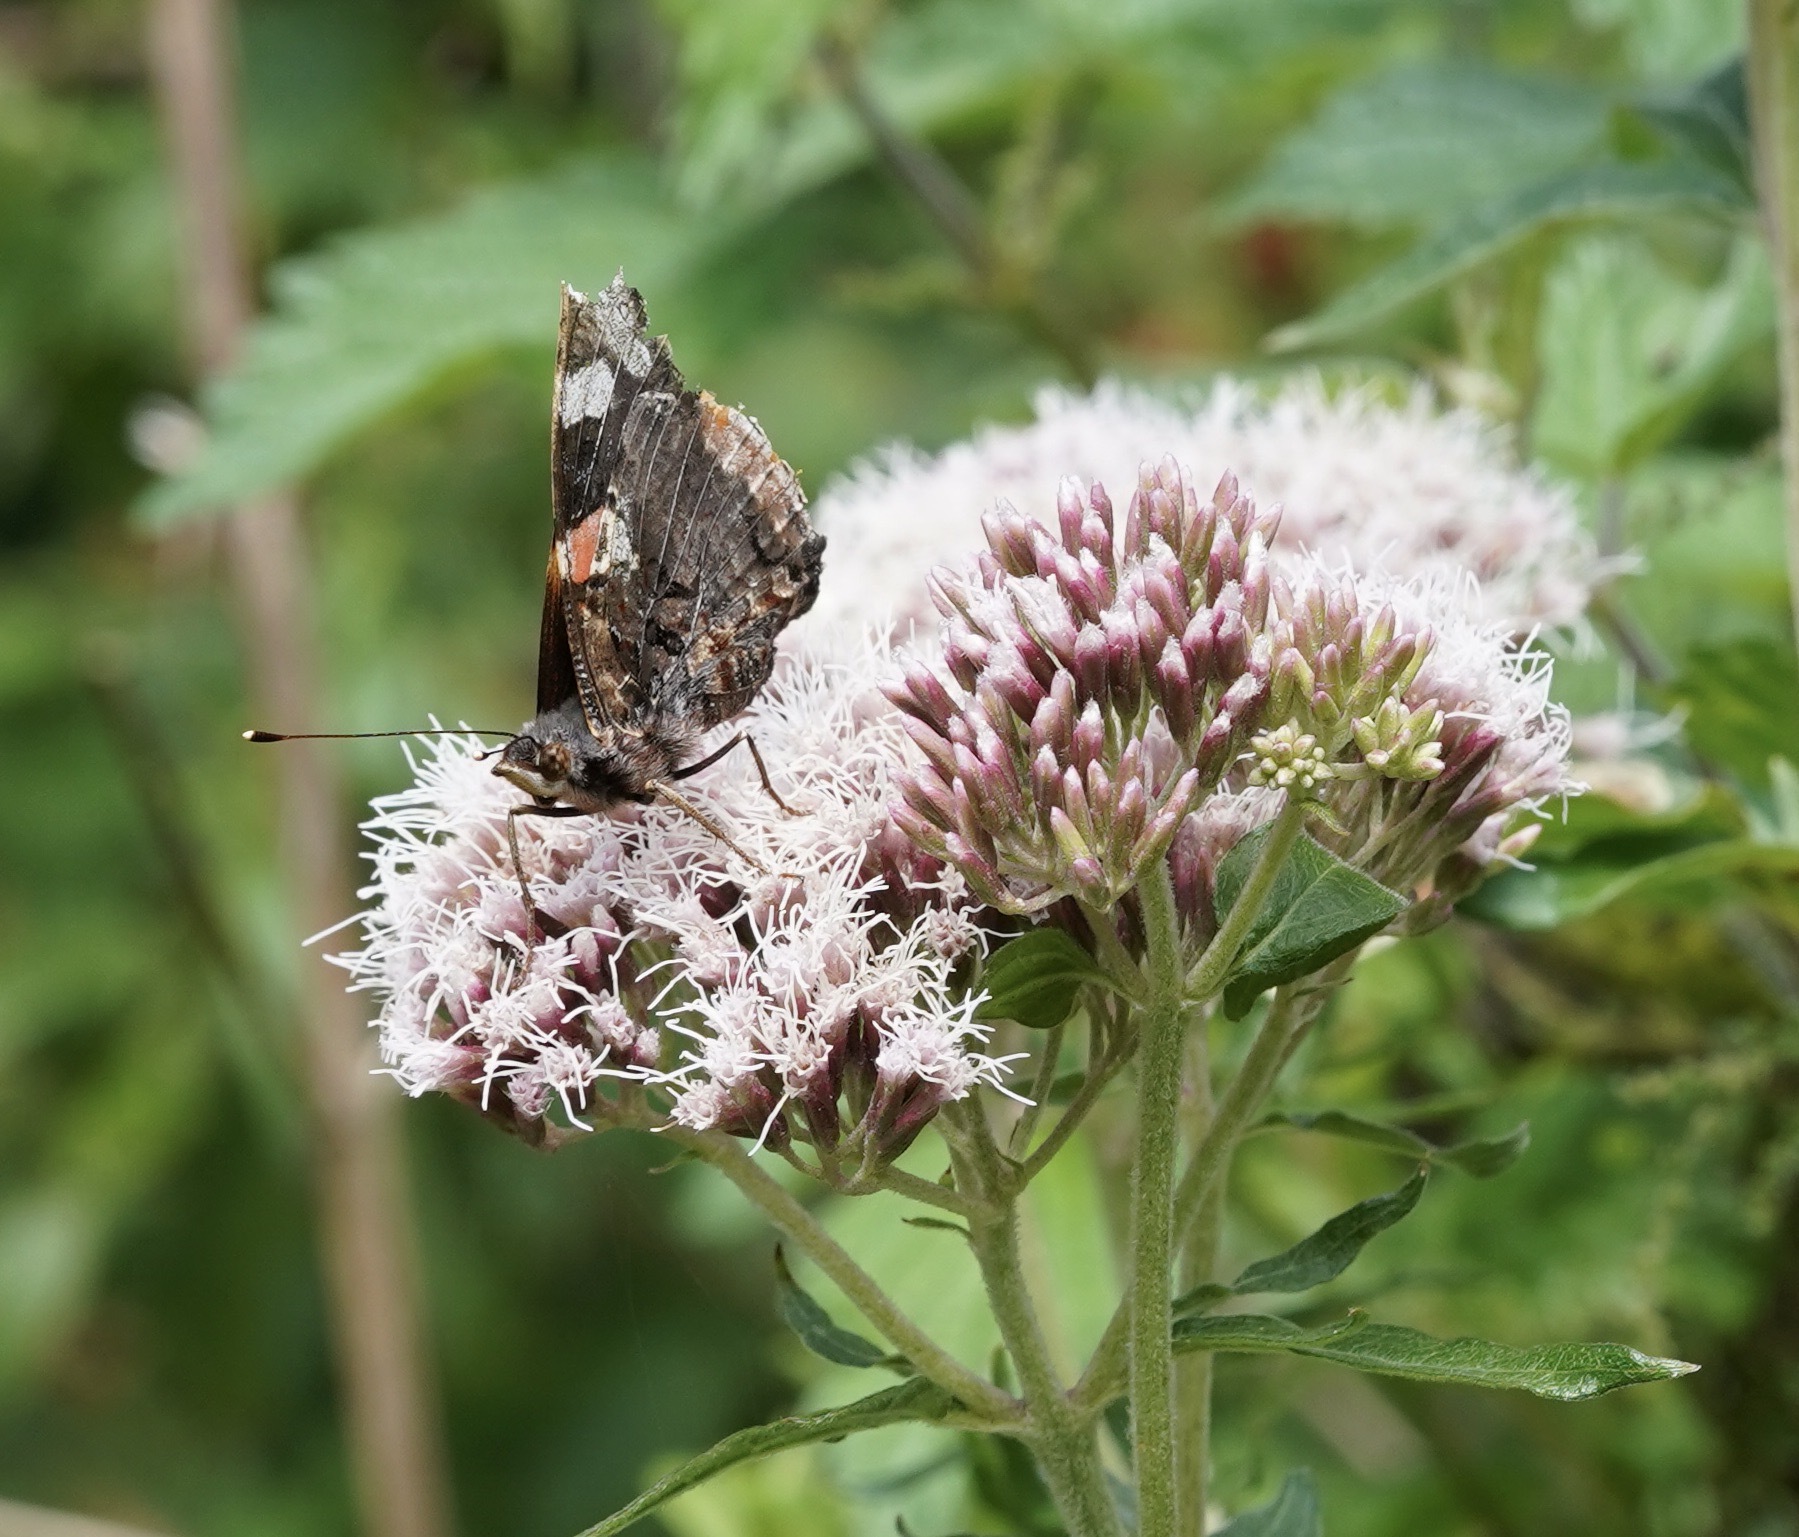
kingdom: Animalia
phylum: Arthropoda
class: Insecta
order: Lepidoptera
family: Nymphalidae
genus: Vanessa
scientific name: Vanessa atalanta
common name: Red admiral
